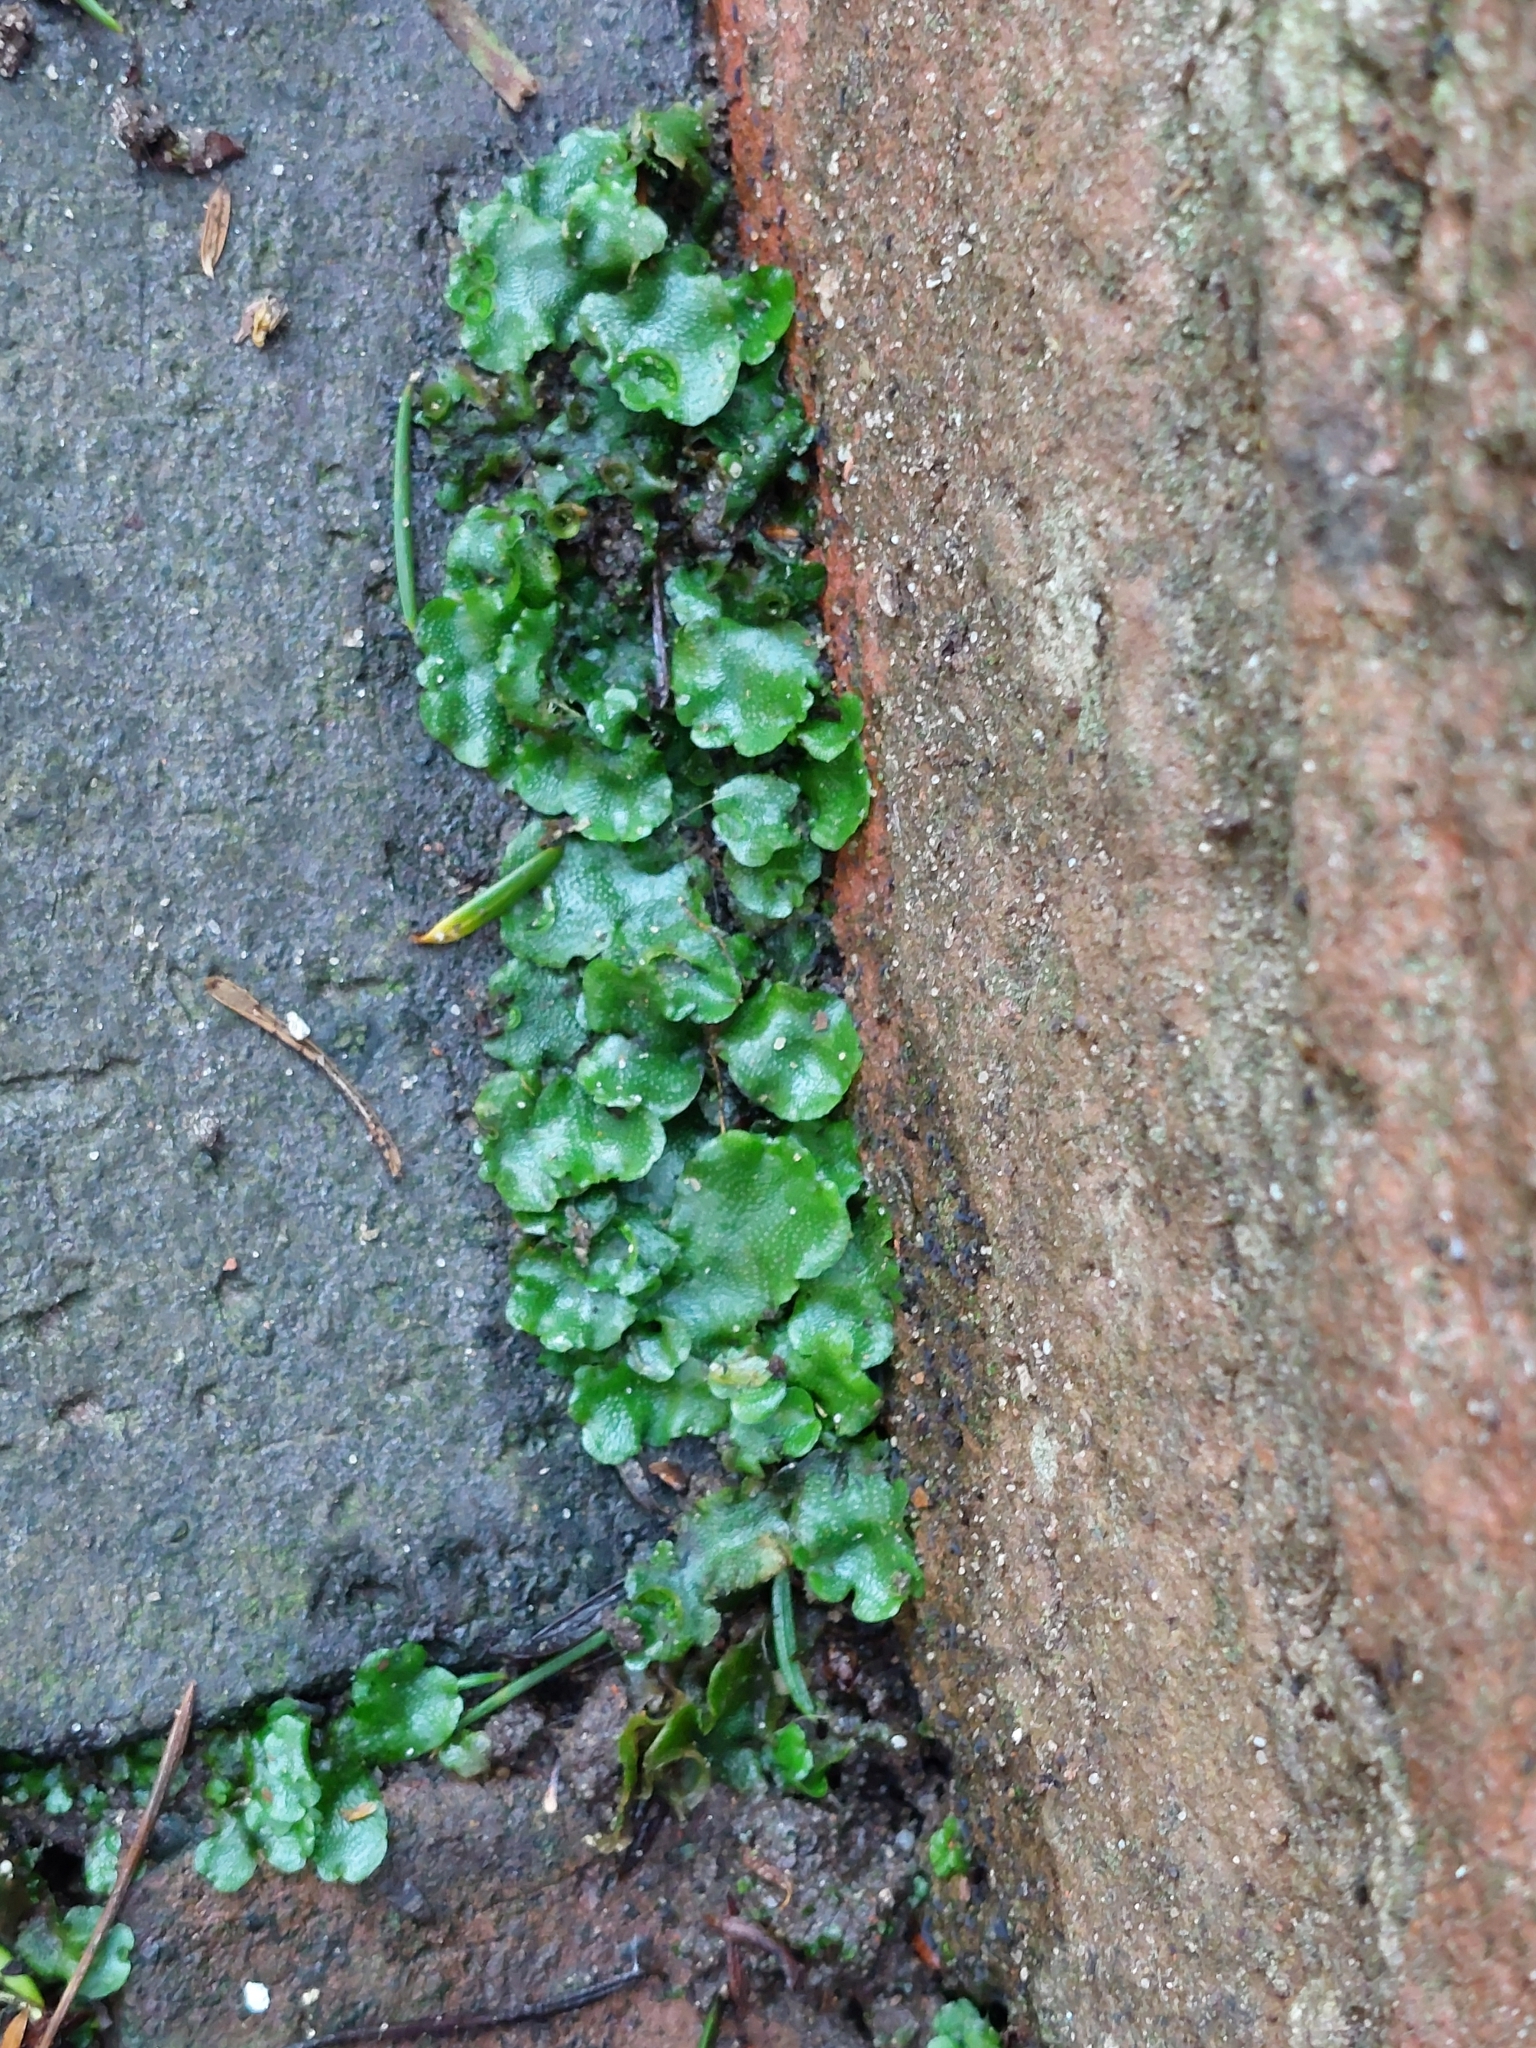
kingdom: Plantae
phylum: Marchantiophyta
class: Marchantiopsida
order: Lunulariales
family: Lunulariaceae
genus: Lunularia
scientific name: Lunularia cruciata
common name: Crescent-cup liverwort
